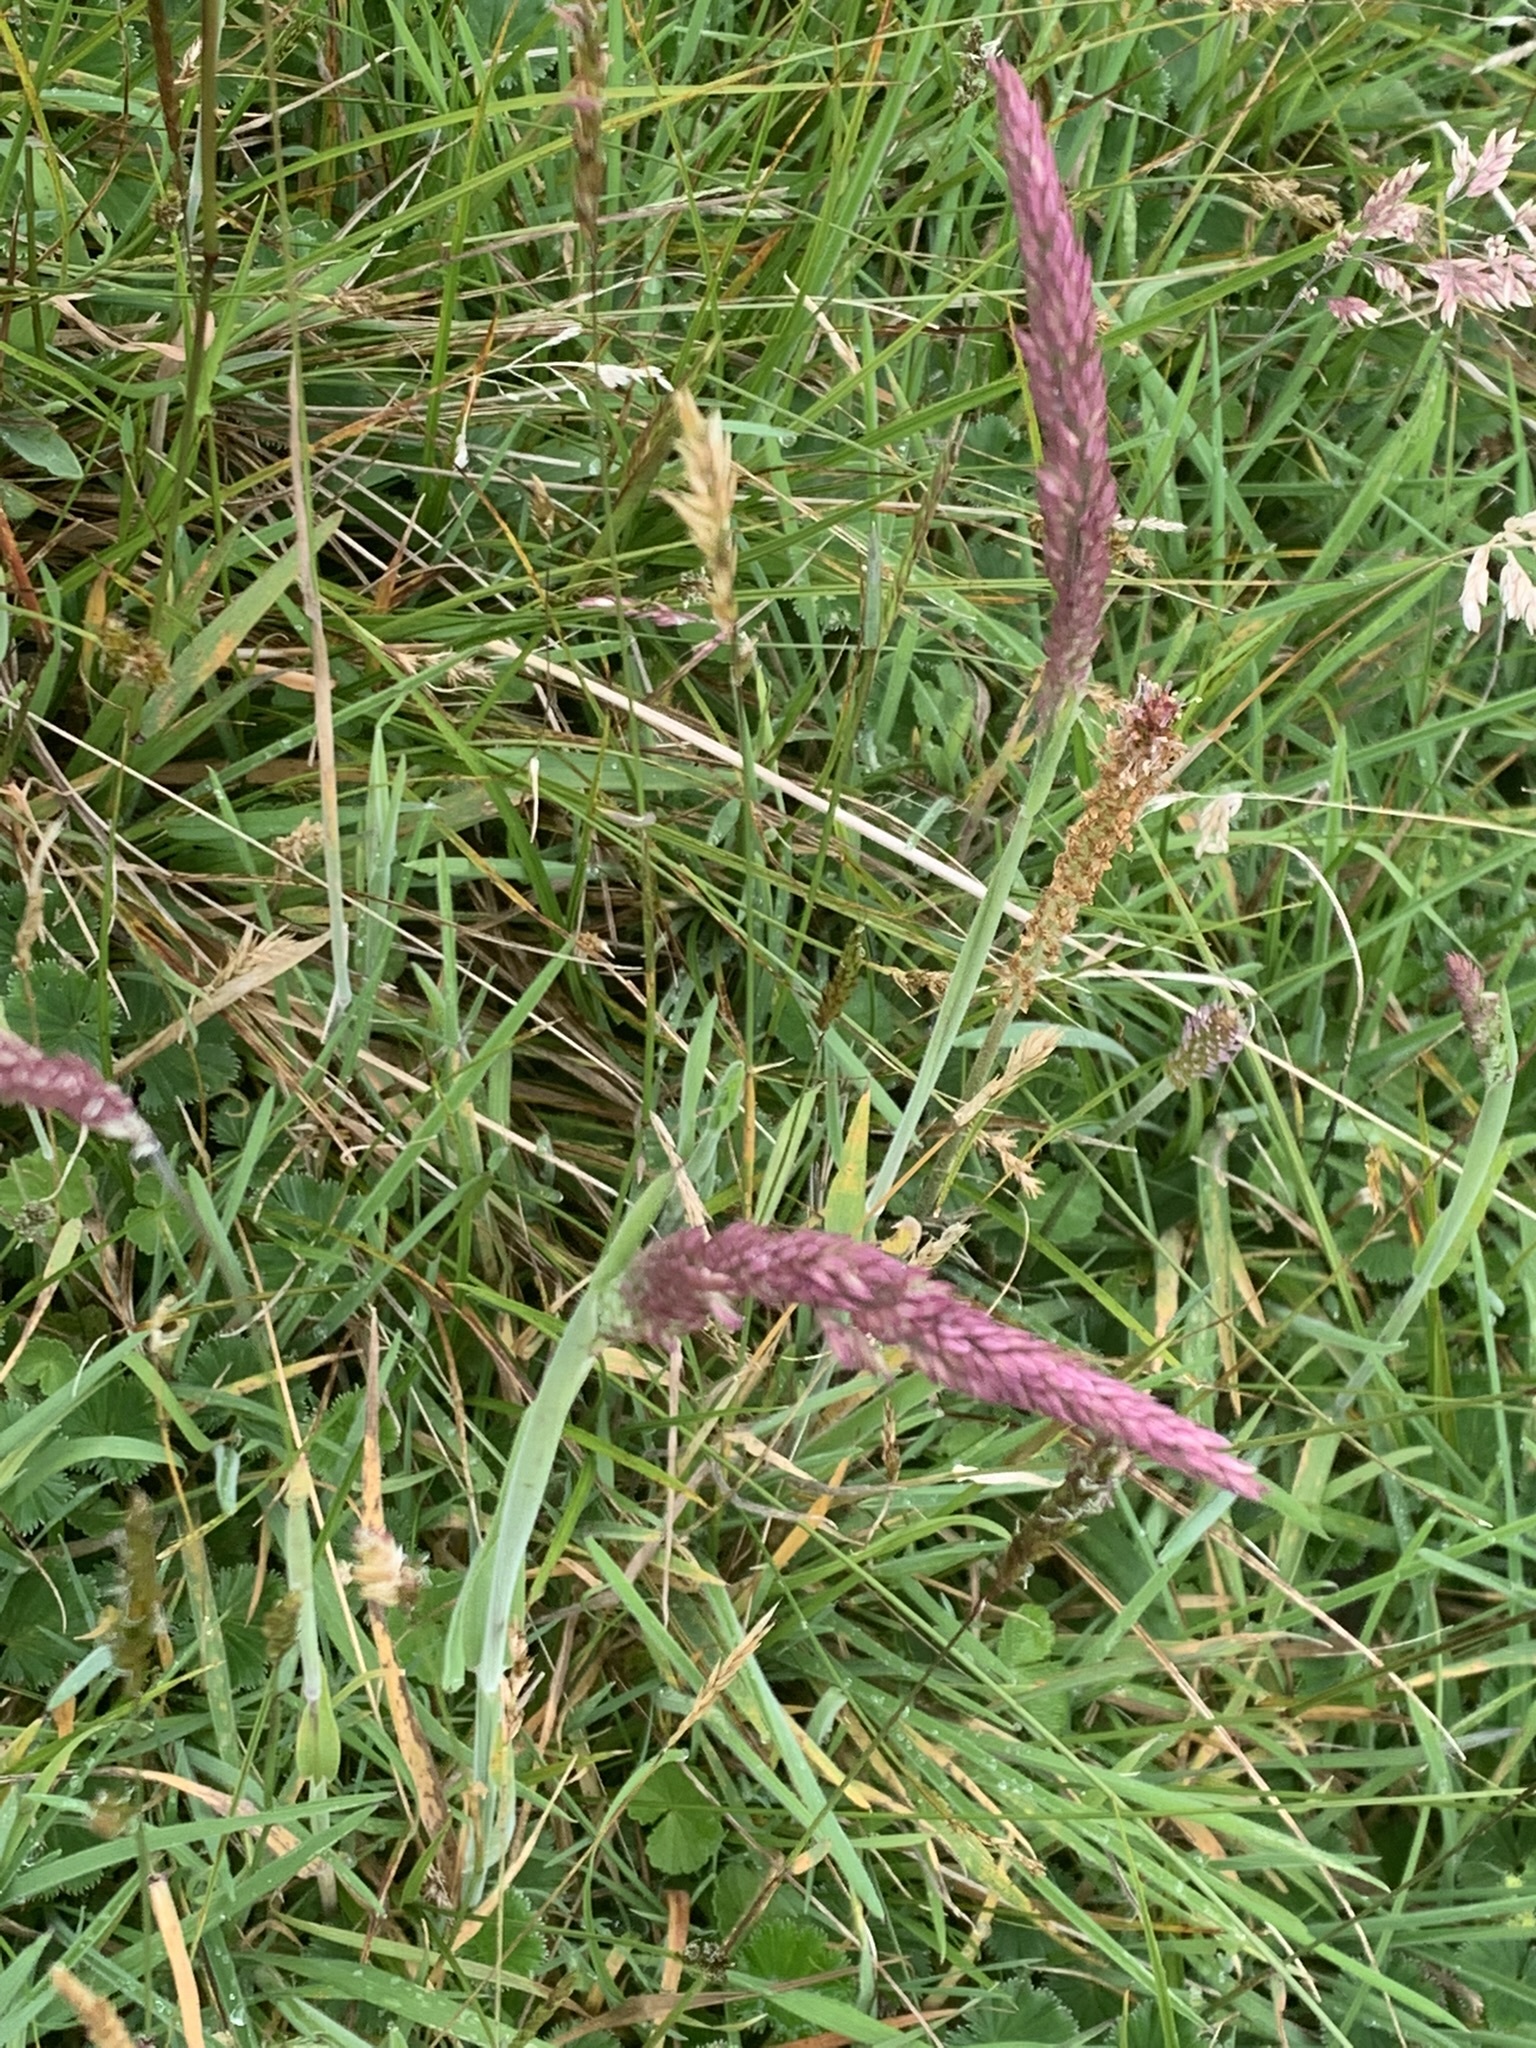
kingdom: Plantae
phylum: Tracheophyta
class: Liliopsida
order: Poales
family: Poaceae
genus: Holcus
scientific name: Holcus lanatus
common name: Yorkshire-fog
